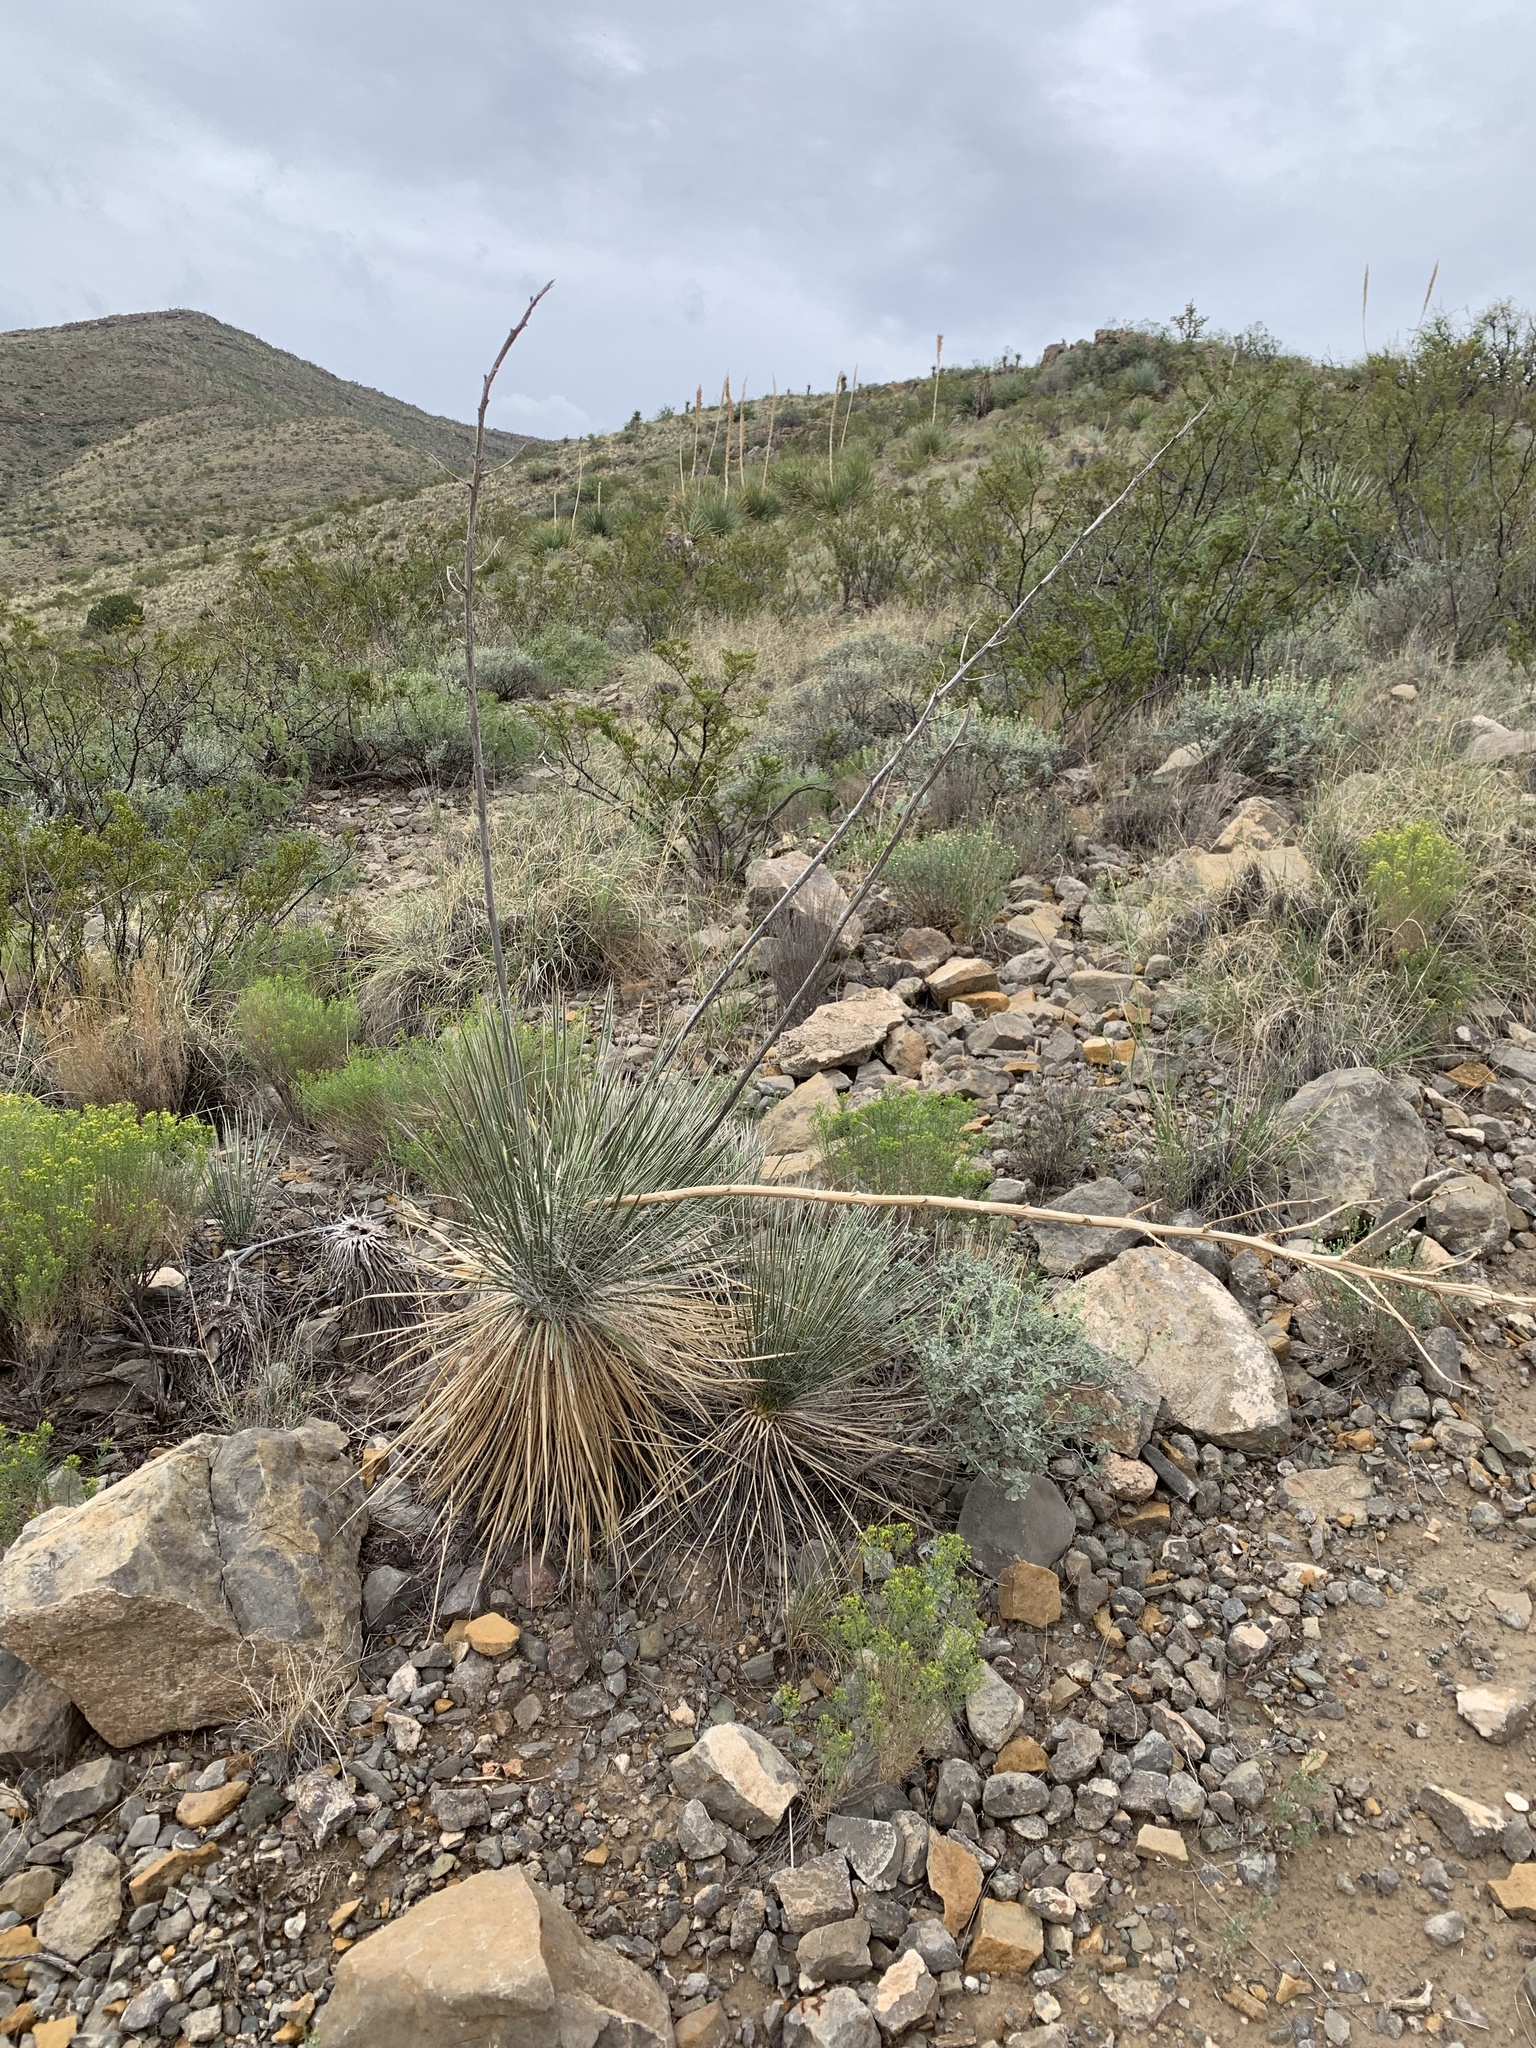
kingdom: Plantae
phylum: Tracheophyta
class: Liliopsida
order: Asparagales
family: Asparagaceae
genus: Yucca
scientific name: Yucca elata
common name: Palmella
